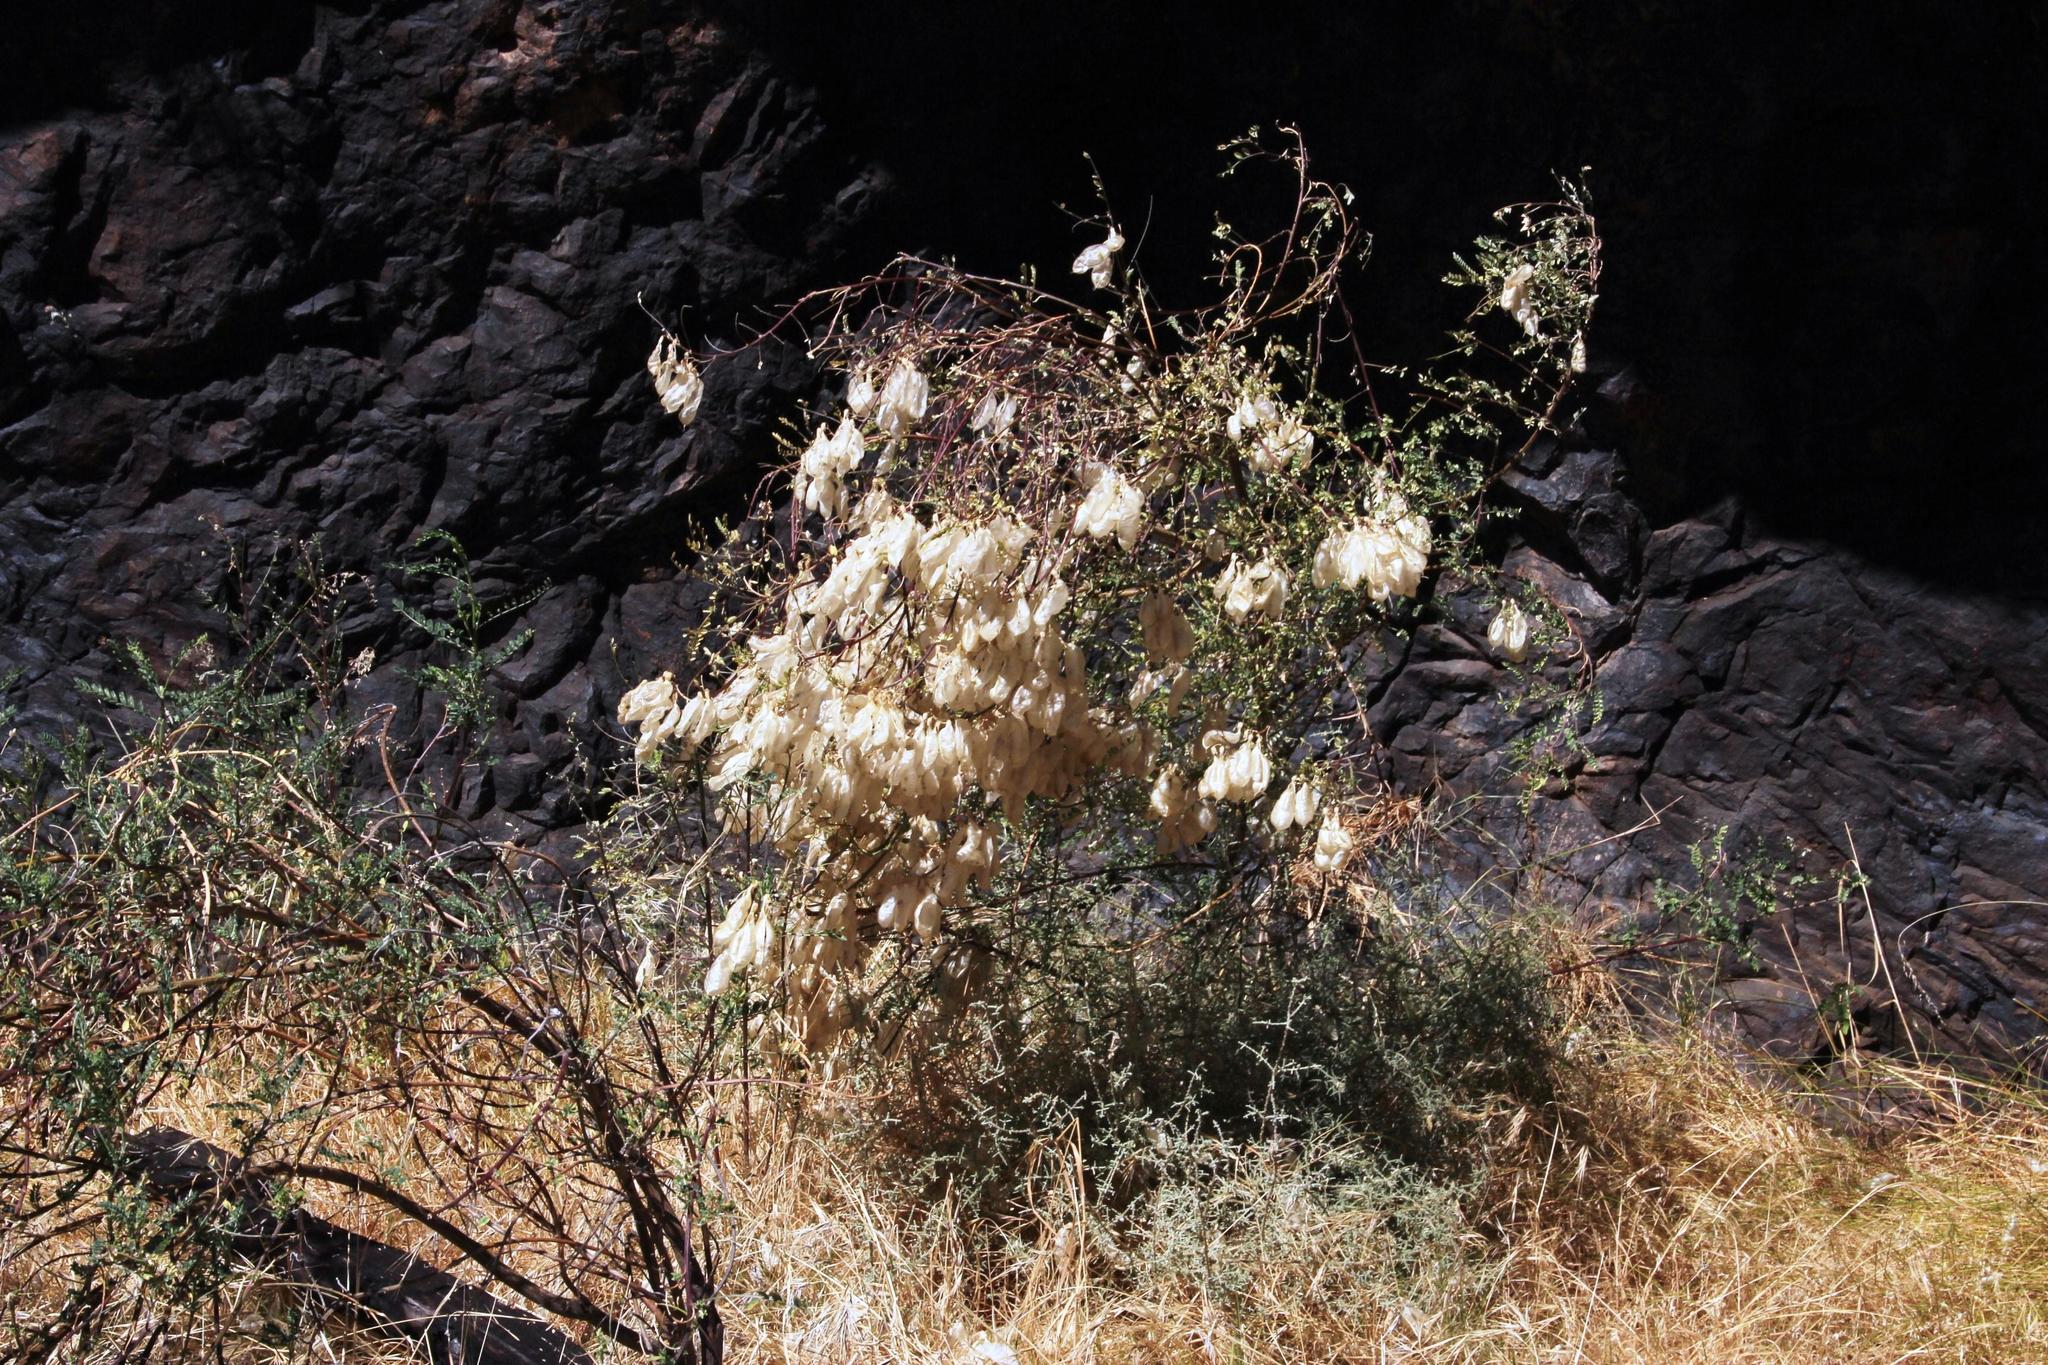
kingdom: Plantae
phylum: Tracheophyta
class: Magnoliopsida
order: Fabales
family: Fabaceae
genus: Lessertia
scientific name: Lessertia frutescens
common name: Balloon-pea
